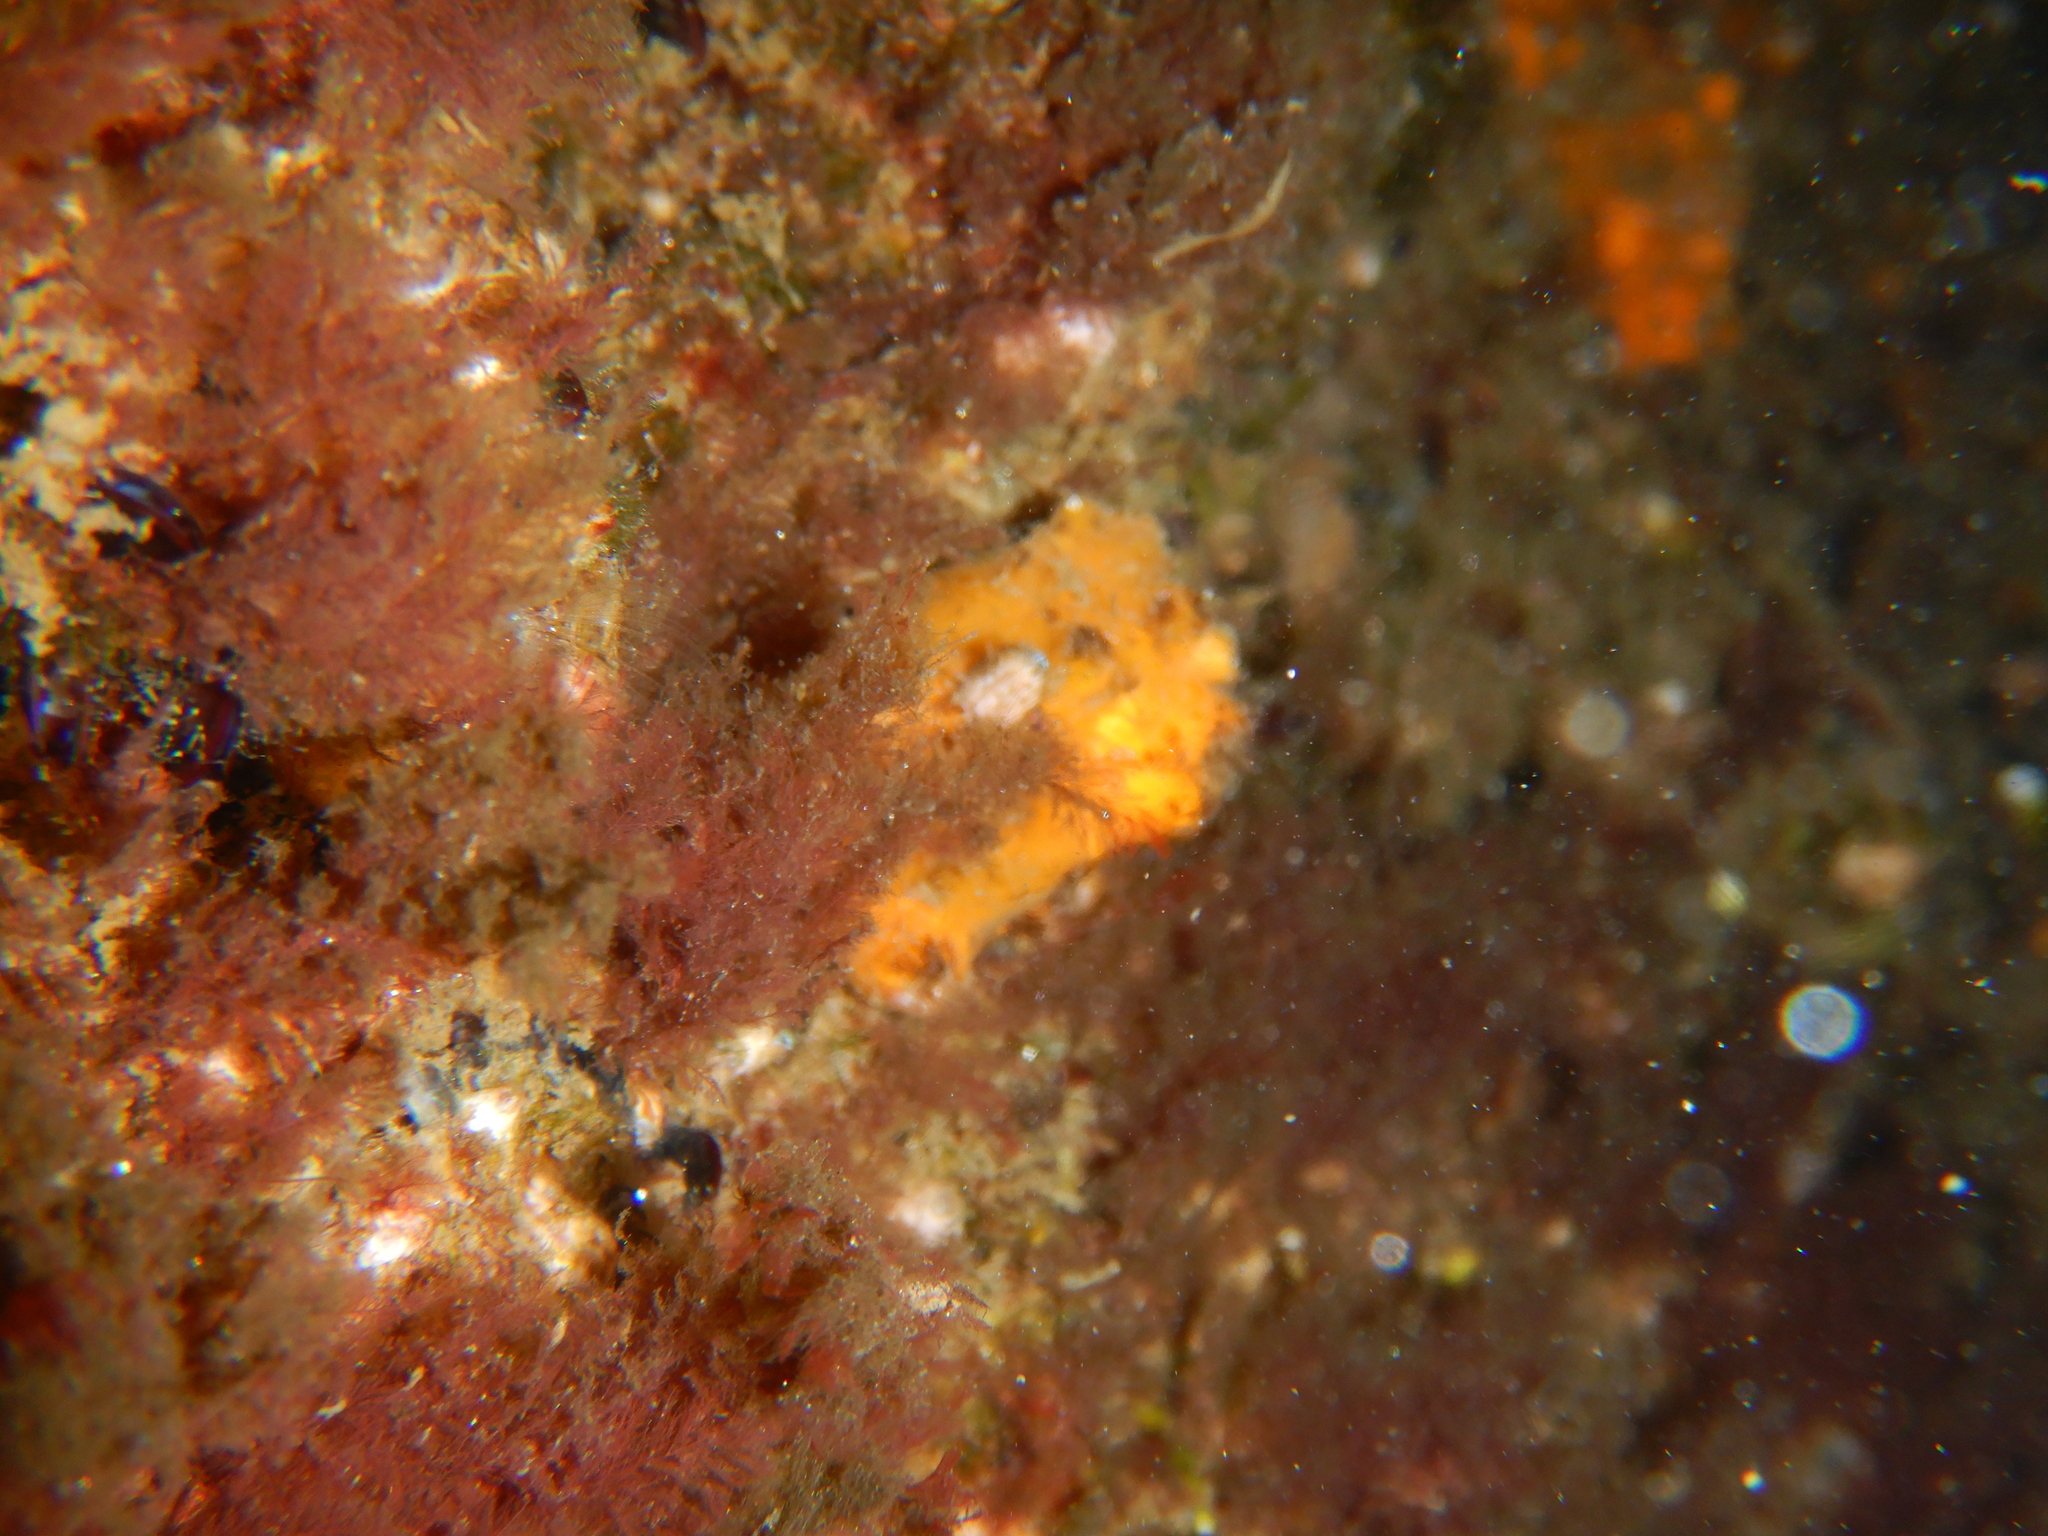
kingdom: Animalia
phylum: Porifera
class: Demospongiae
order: Agelasida
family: Agelasidae
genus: Agelas
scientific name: Agelas oroides
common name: Maltese sponge
